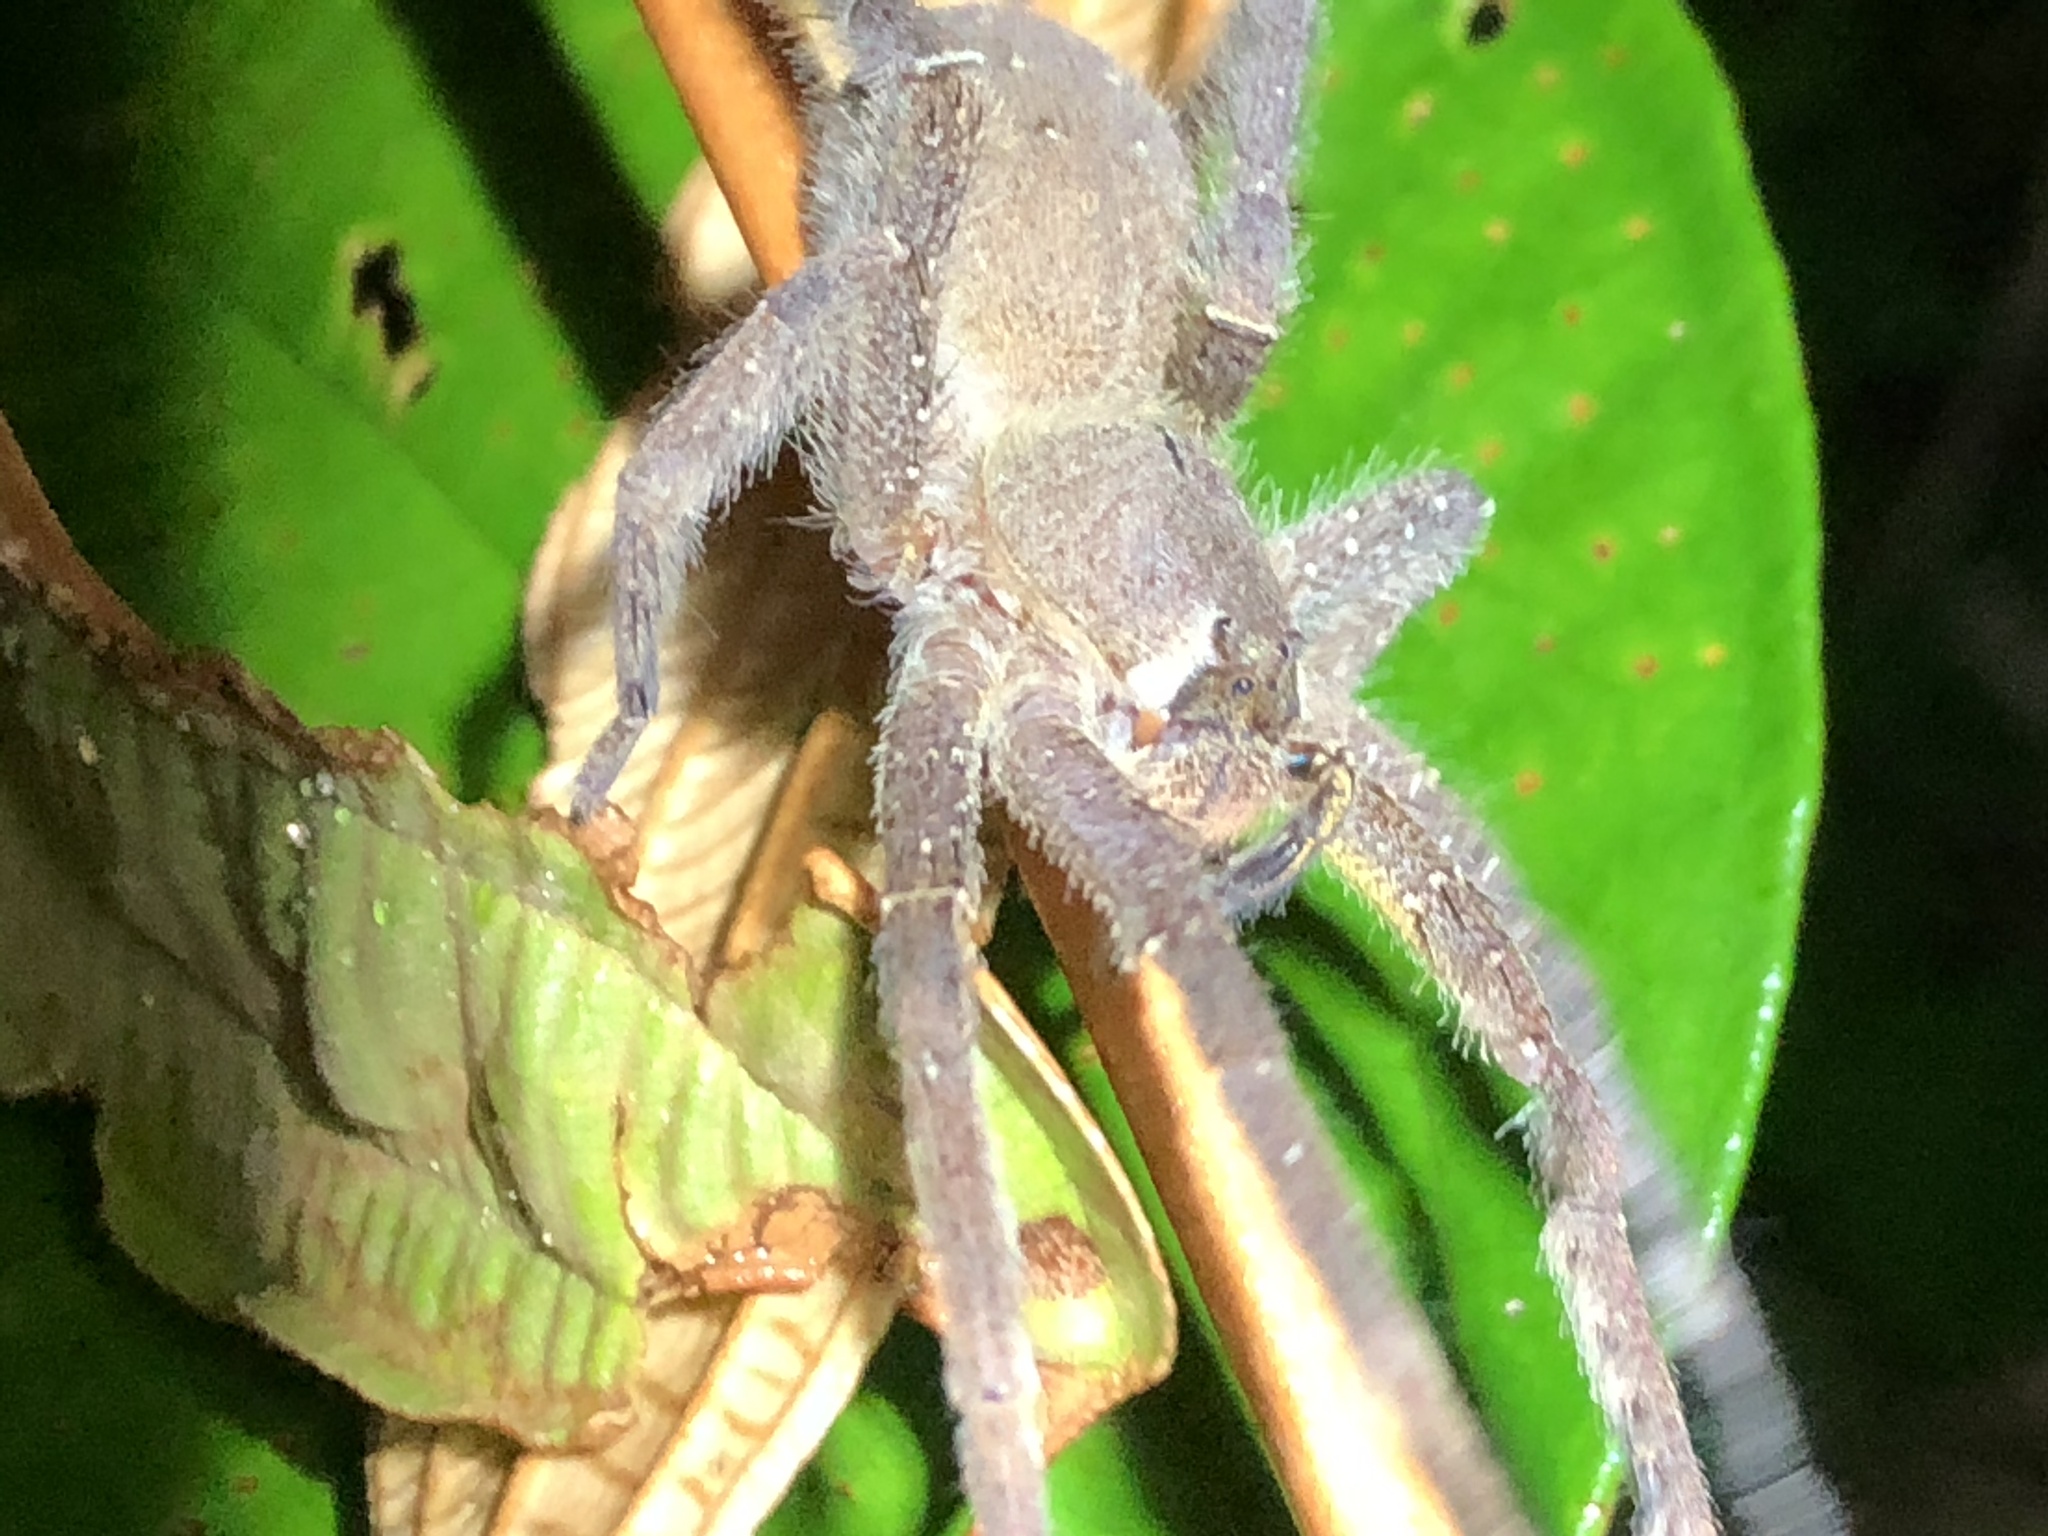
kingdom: Animalia
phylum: Arthropoda
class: Arachnida
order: Araneae
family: Ctenidae
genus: Phoneutria
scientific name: Phoneutria boliviensis
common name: Wandering spiders
